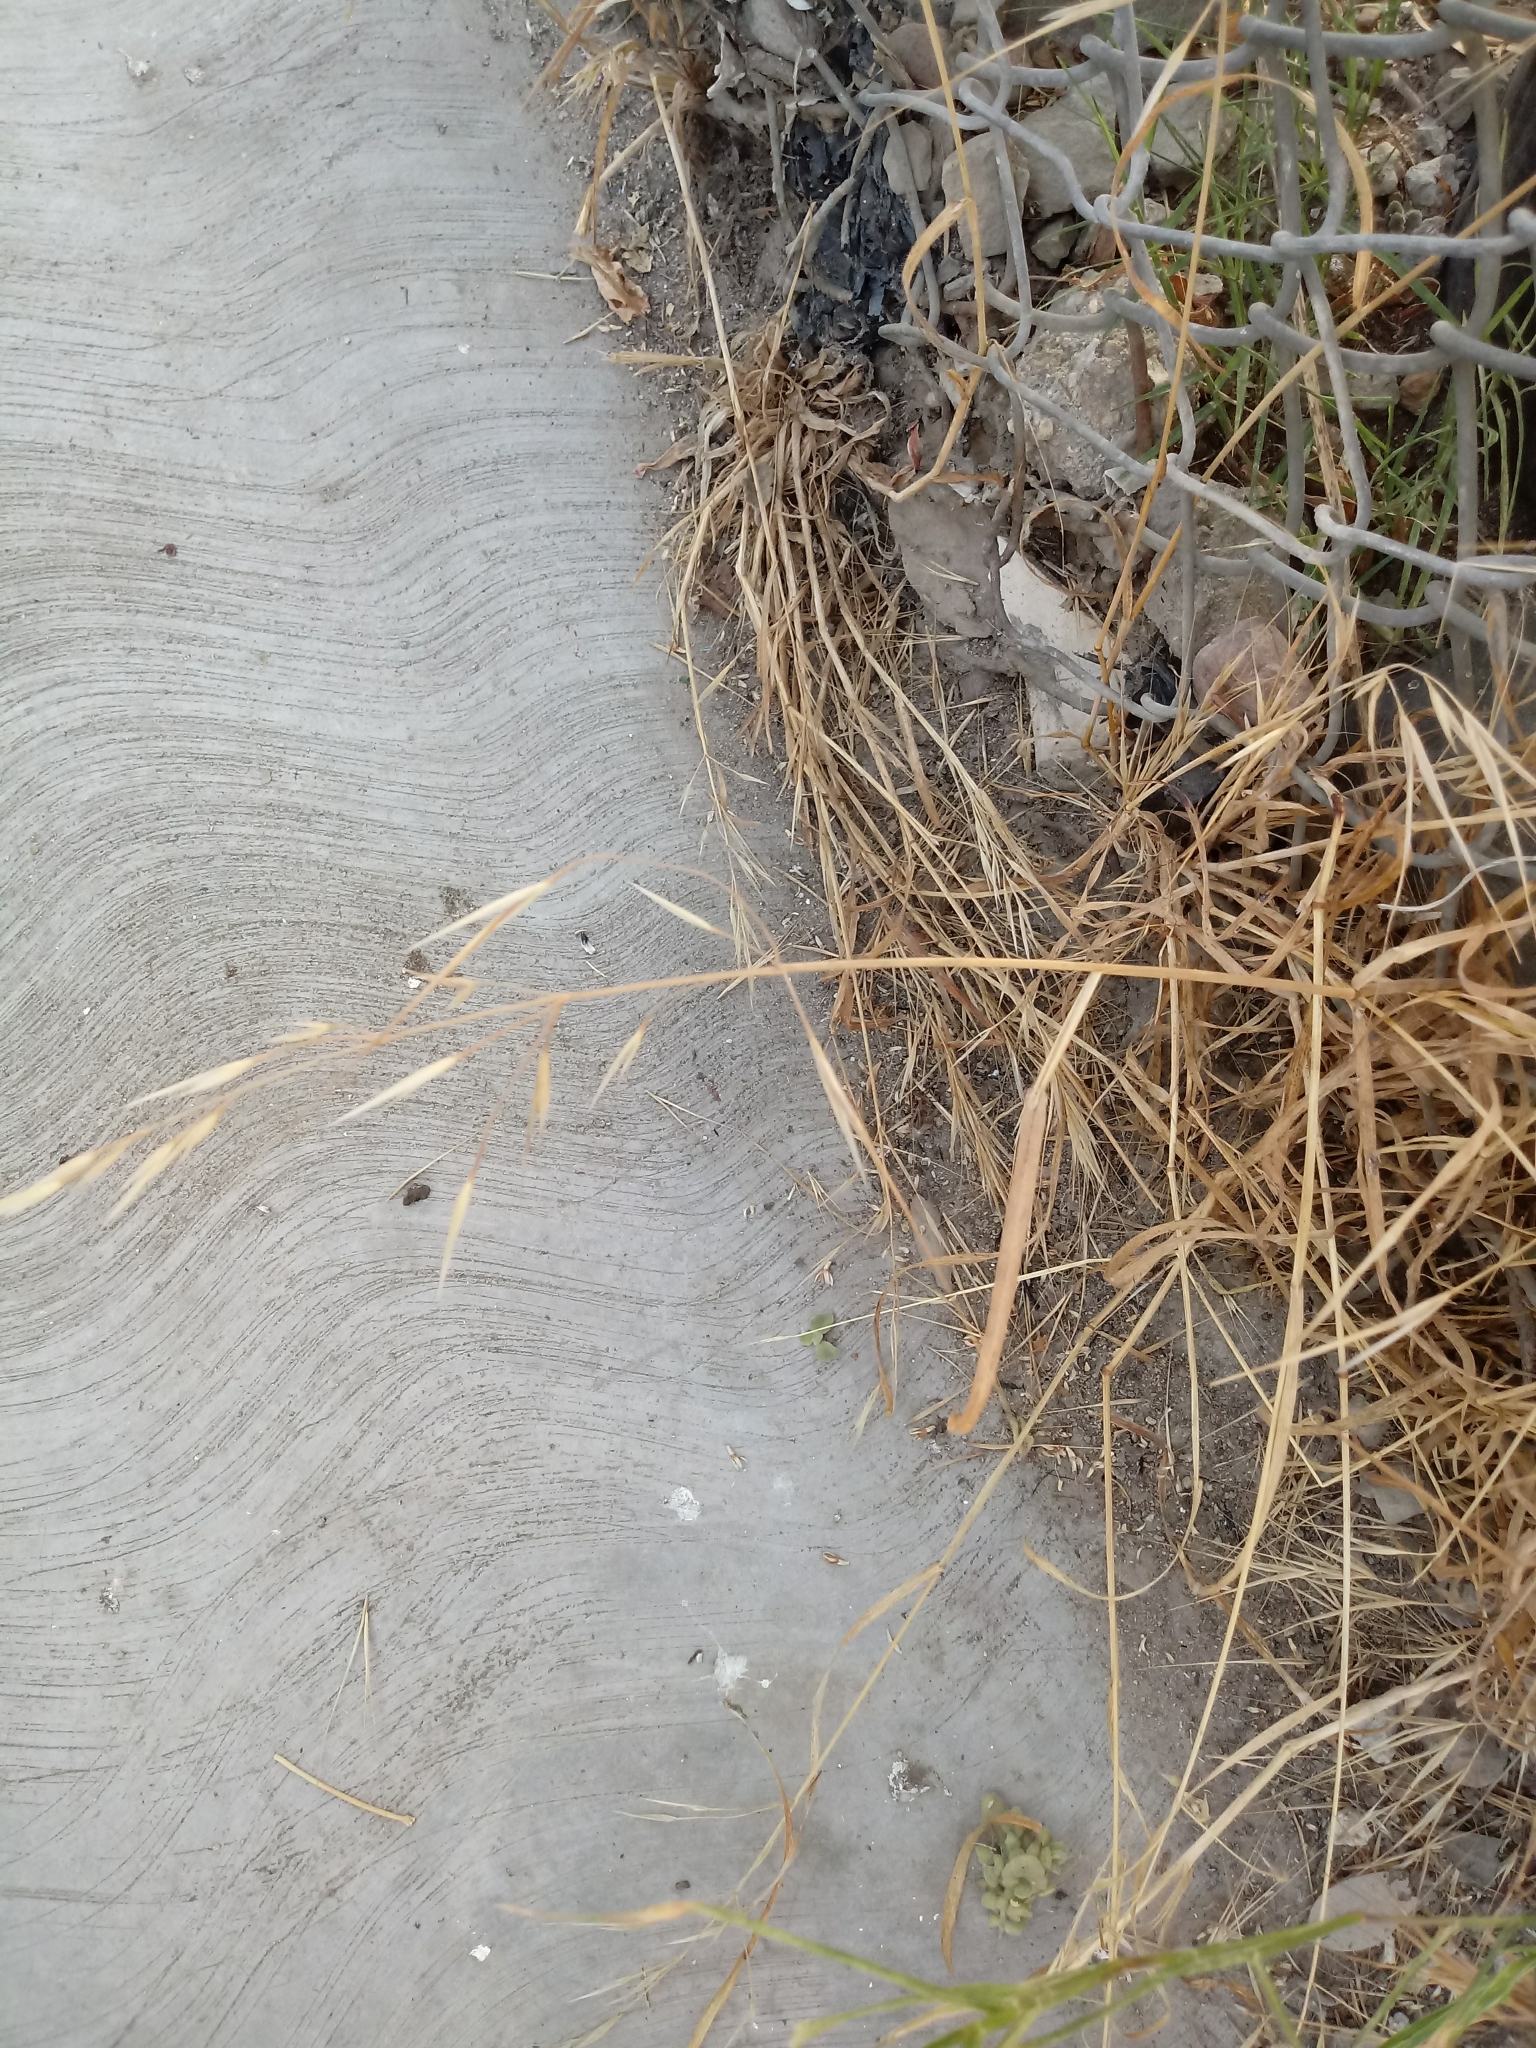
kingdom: Plantae
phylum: Tracheophyta
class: Liliopsida
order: Poales
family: Poaceae
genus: Bromus
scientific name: Bromus diandrus
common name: Ripgut brome
